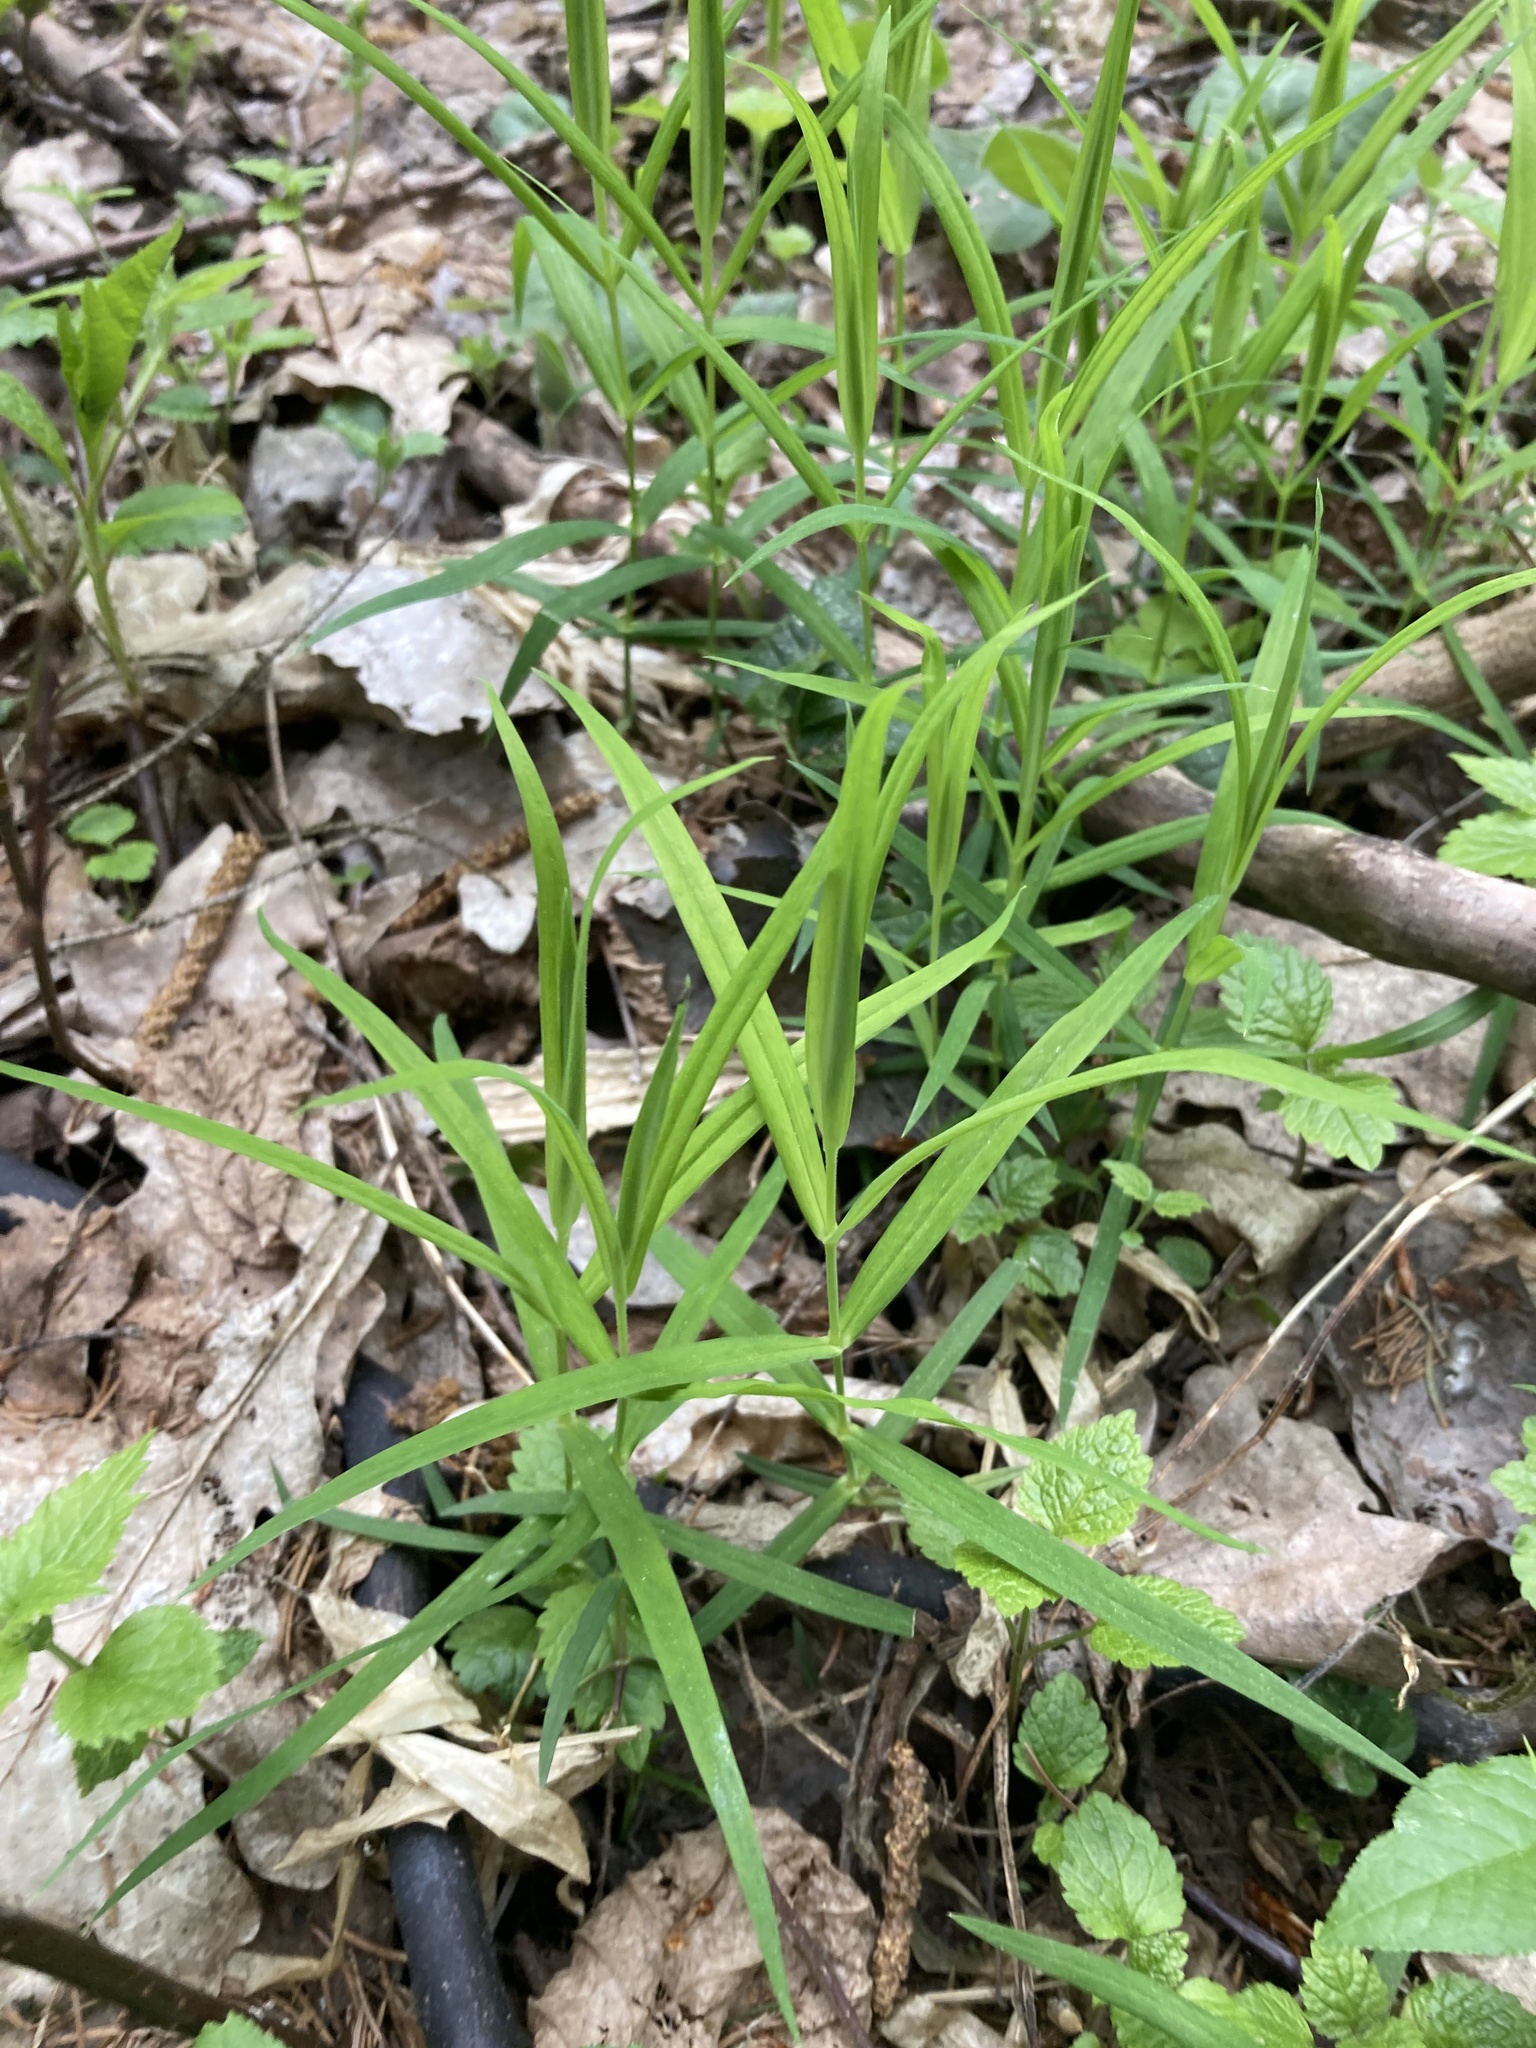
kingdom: Plantae
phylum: Tracheophyta
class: Magnoliopsida
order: Caryophyllales
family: Caryophyllaceae
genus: Rabelera
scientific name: Rabelera holostea
